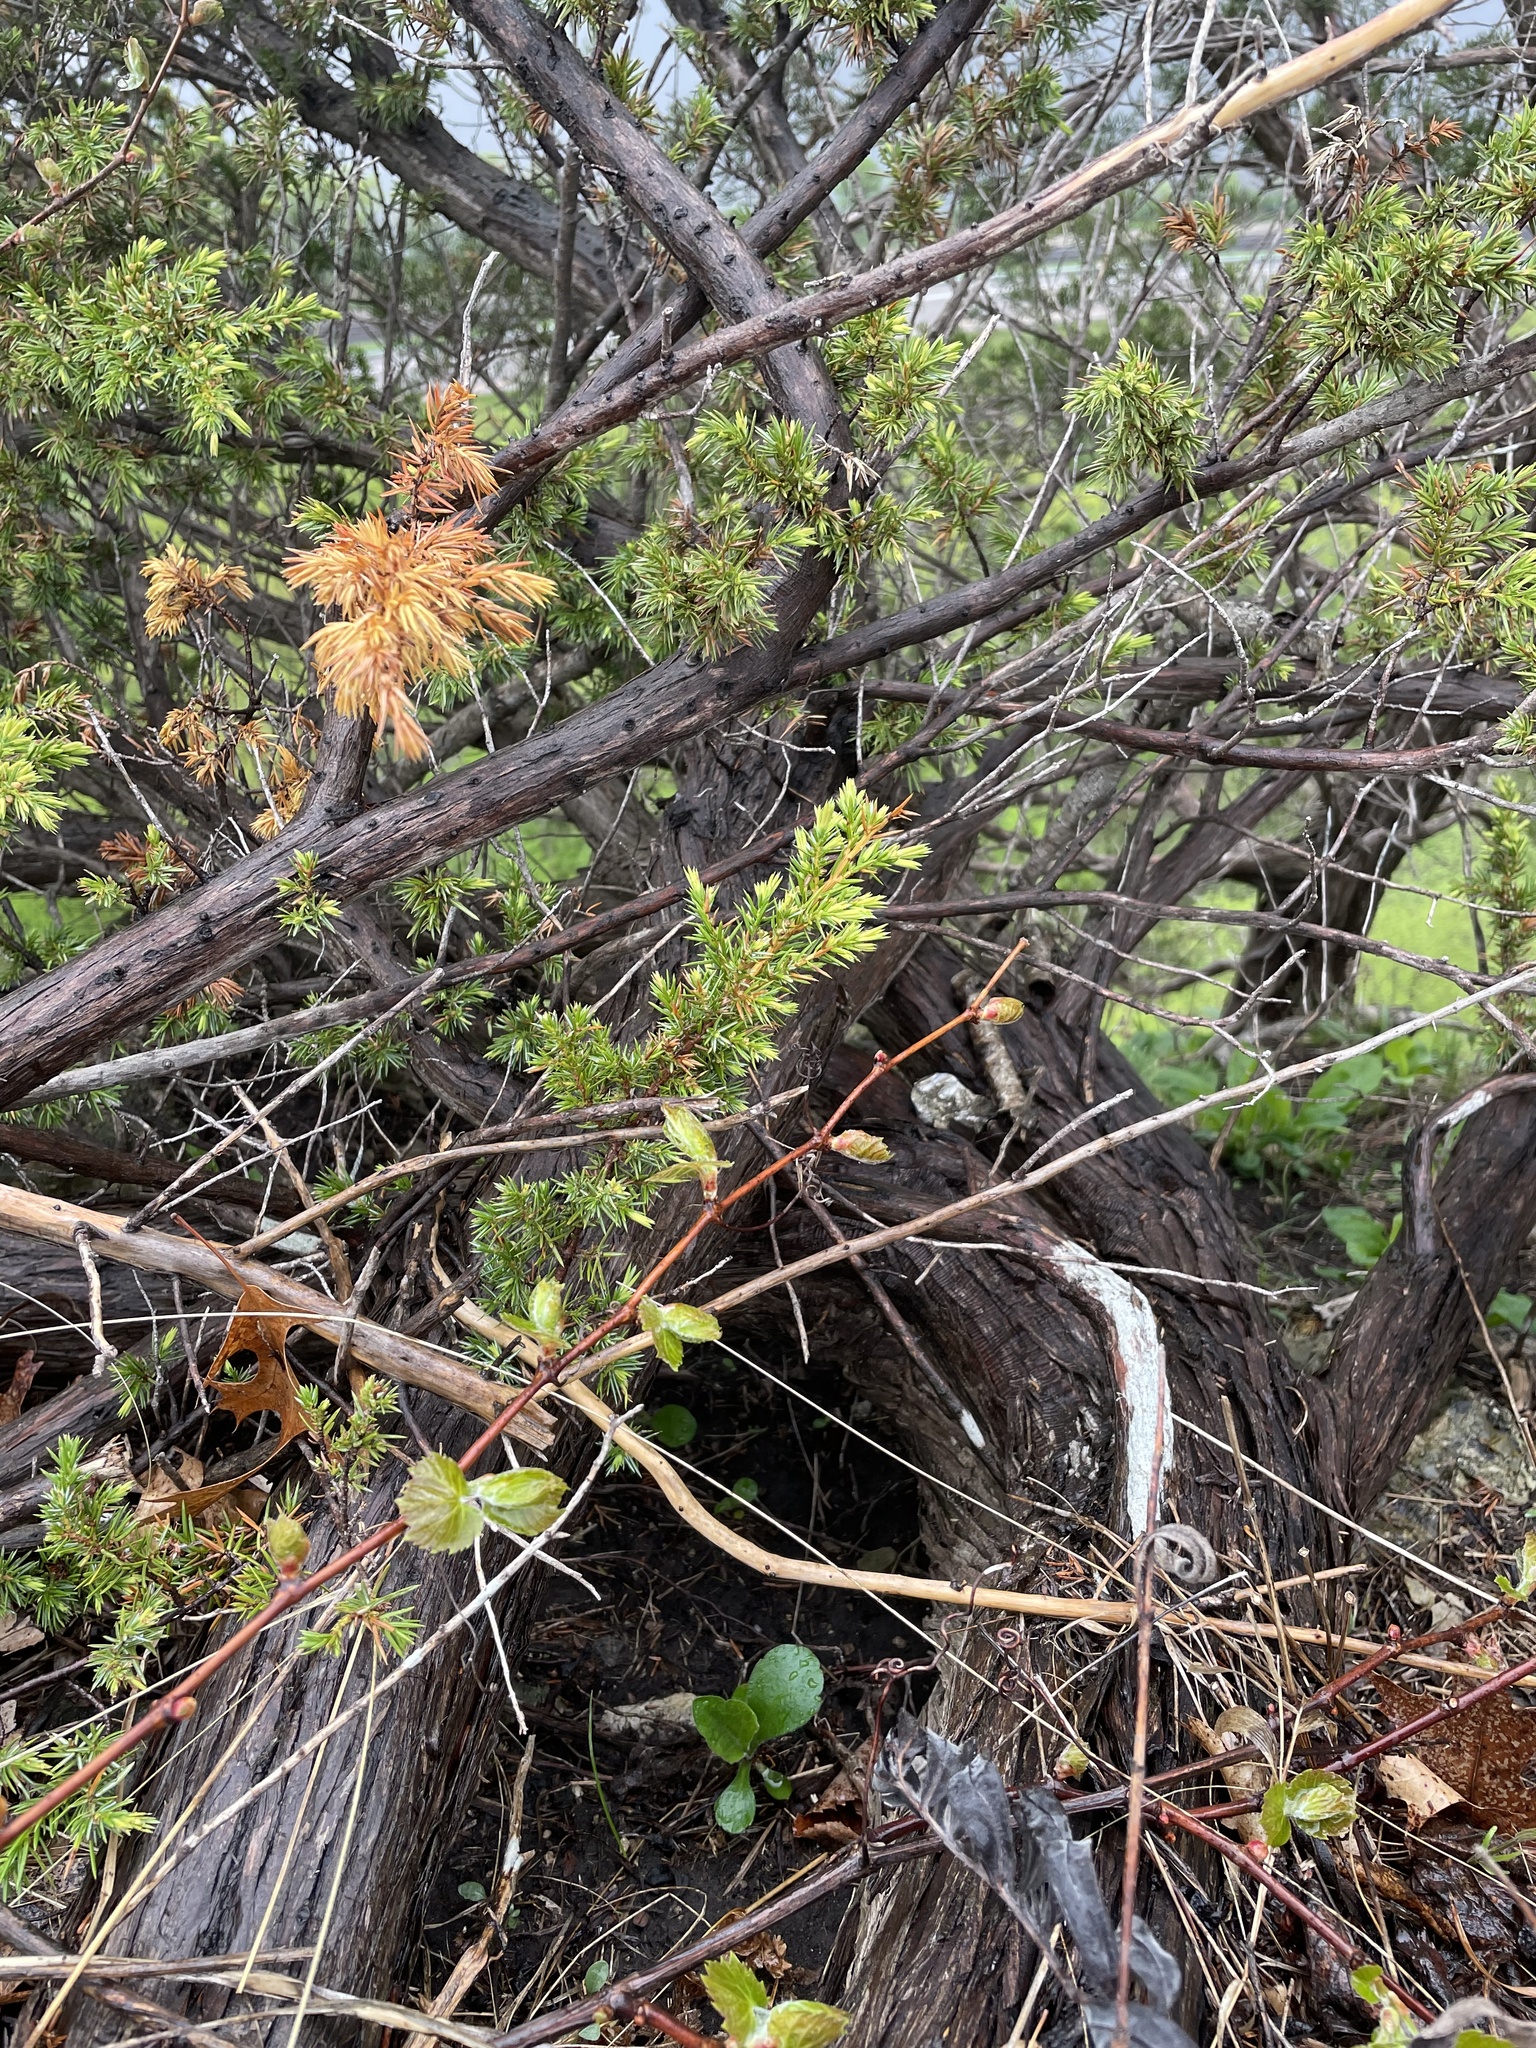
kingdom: Plantae
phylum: Tracheophyta
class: Pinopsida
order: Pinales
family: Cupressaceae
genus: Juniperus
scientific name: Juniperus communis
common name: Common juniper
